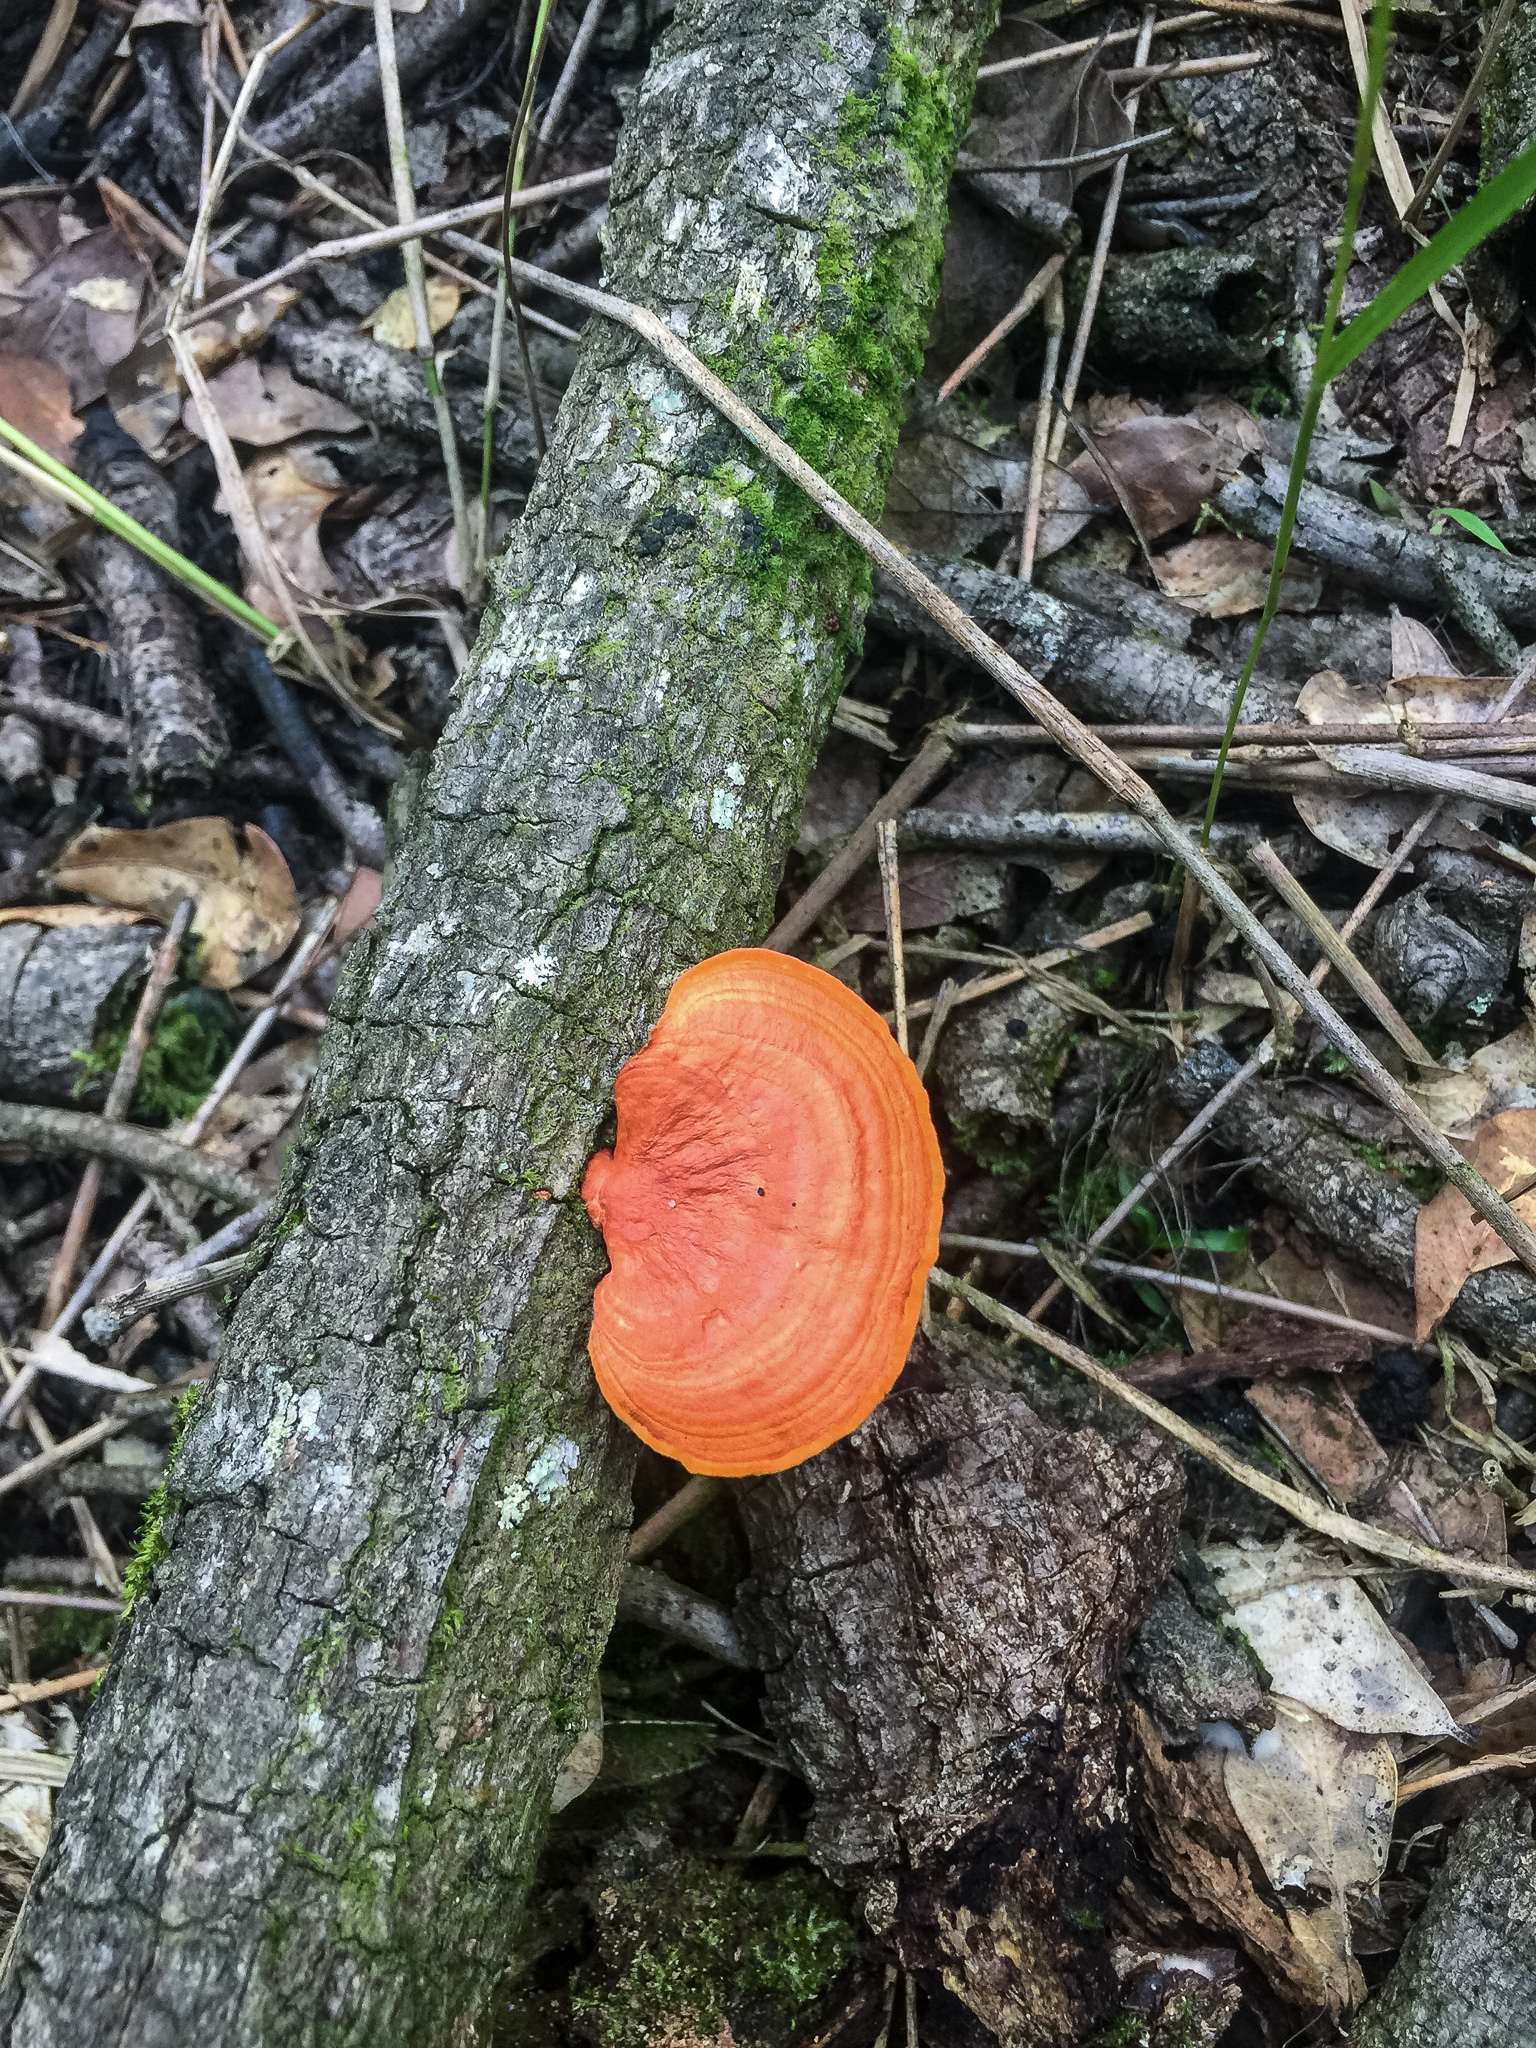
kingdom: Fungi
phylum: Basidiomycota
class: Agaricomycetes
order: Polyporales
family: Polyporaceae
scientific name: Polyporaceae
